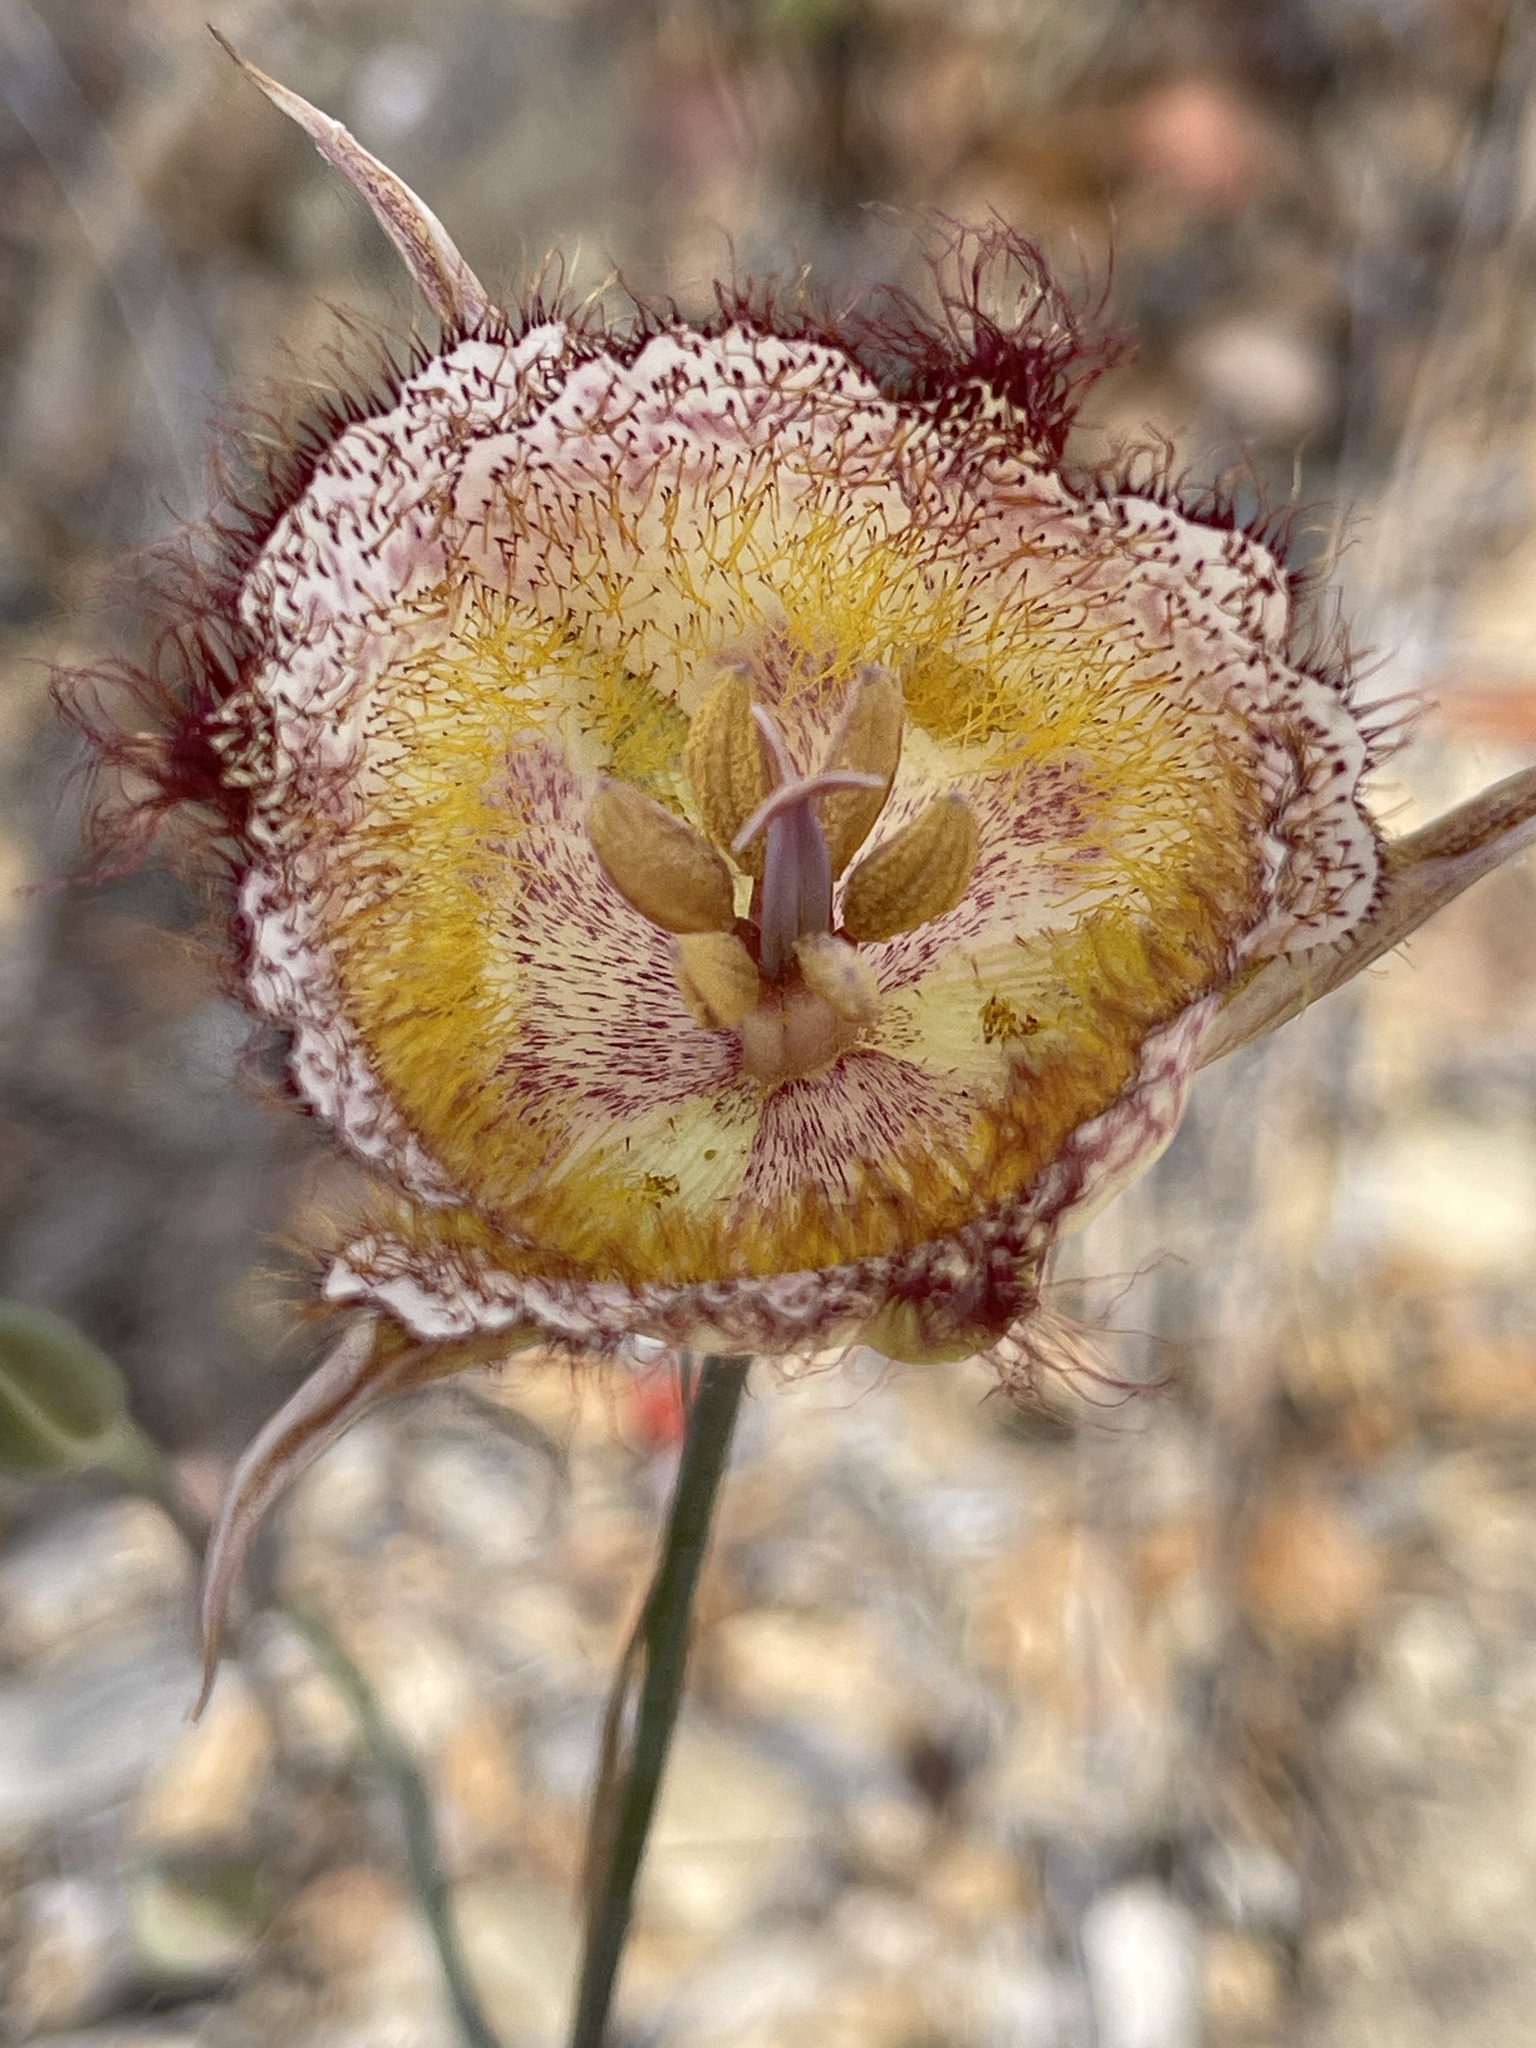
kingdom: Plantae
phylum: Tracheophyta
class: Liliopsida
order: Liliales
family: Liliaceae
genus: Calochortus
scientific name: Calochortus fimbriatus
